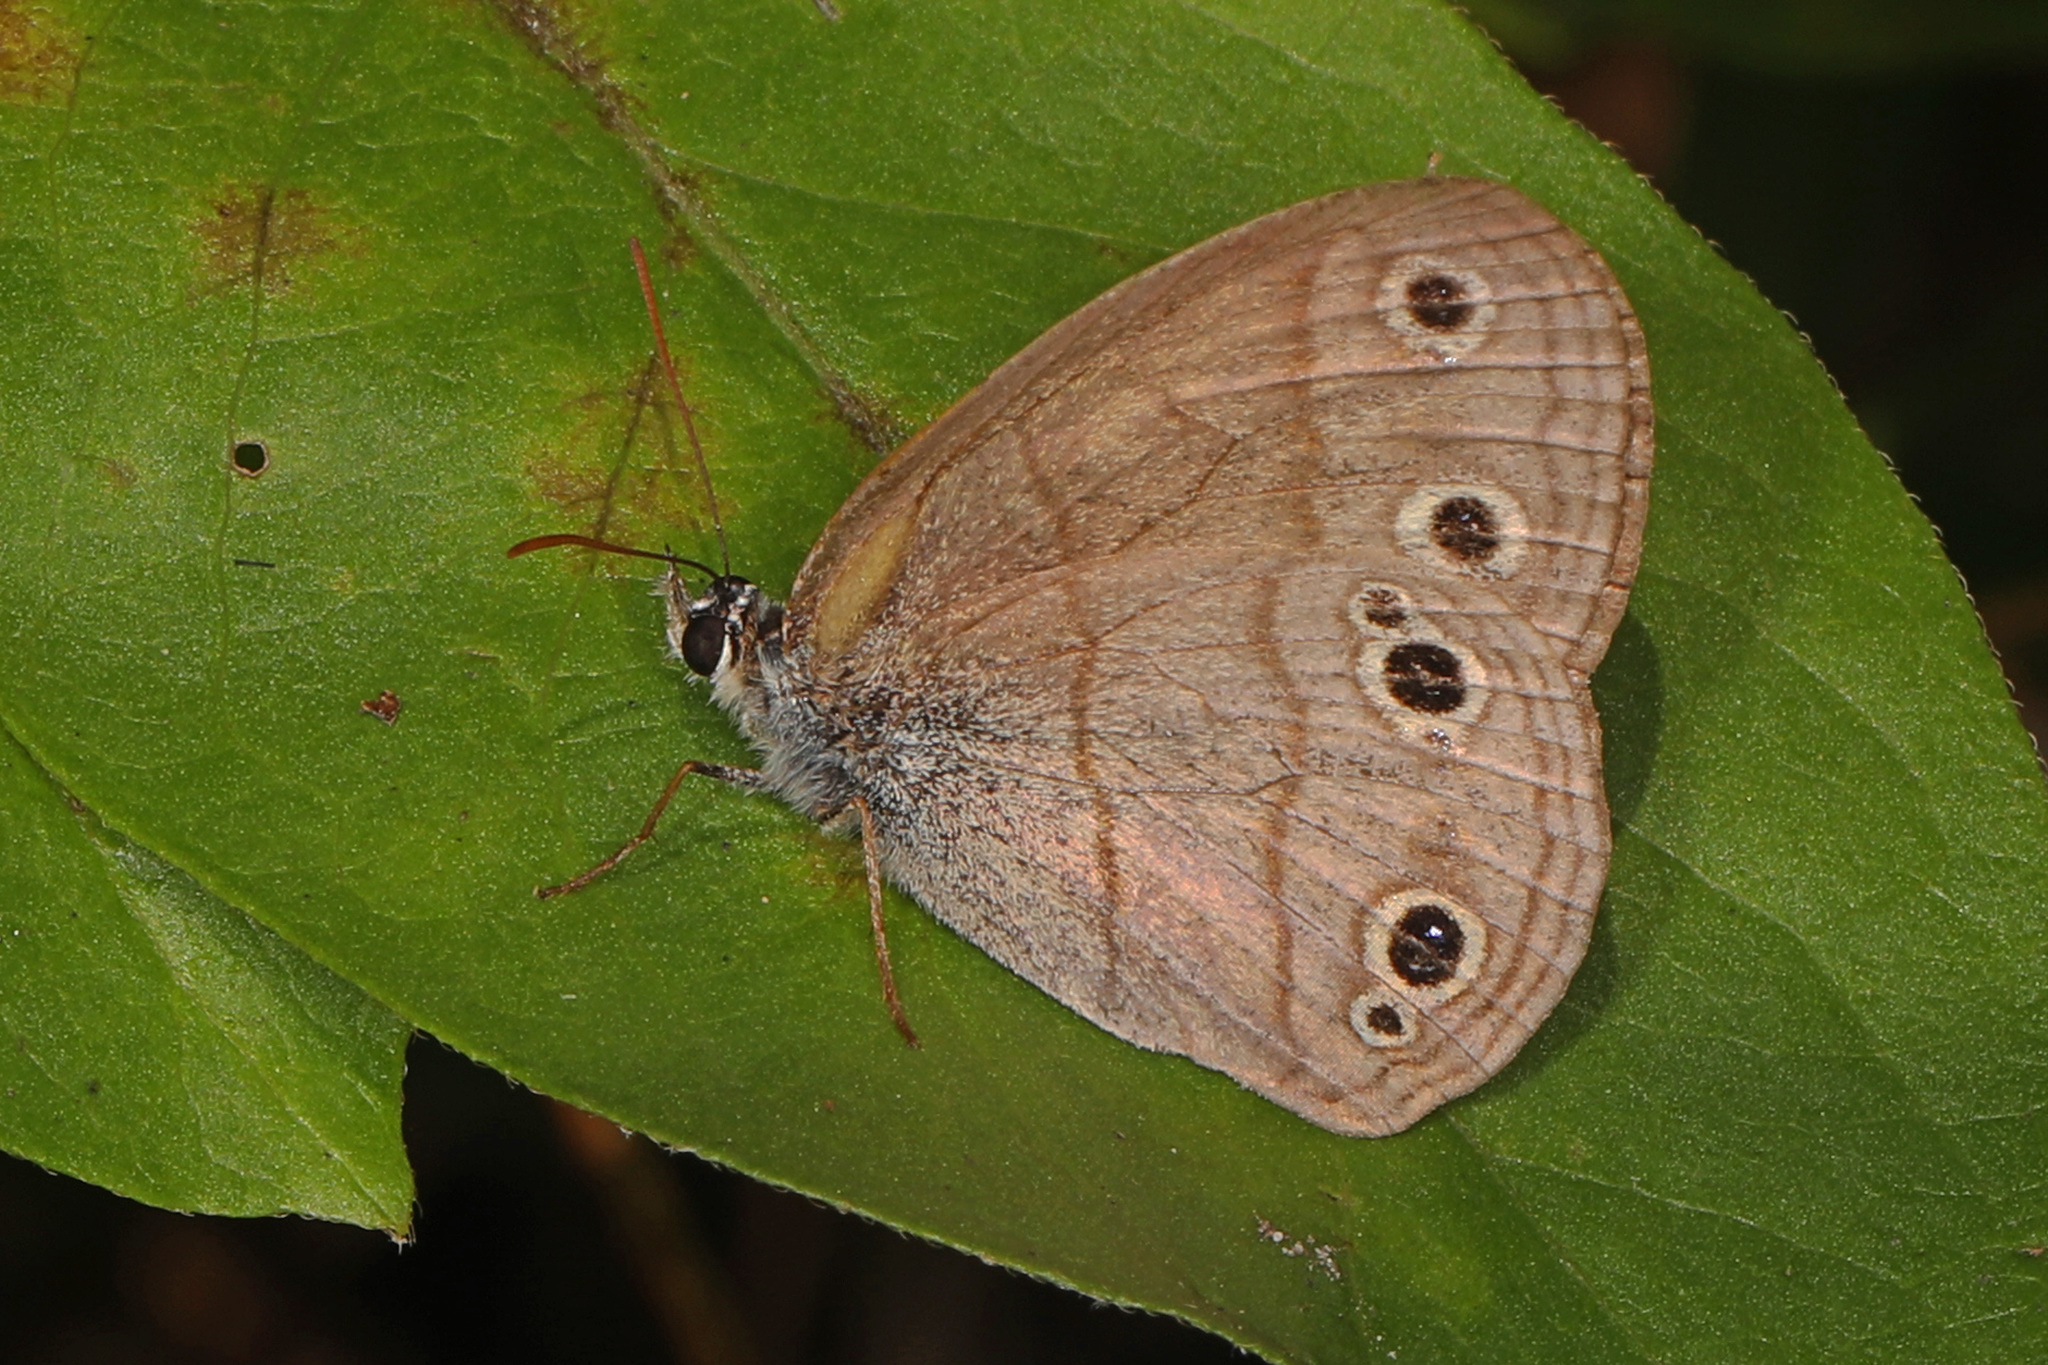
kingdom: Animalia
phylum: Arthropoda
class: Insecta
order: Lepidoptera
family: Nymphalidae
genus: Euptychia
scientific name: Euptychia cymela
